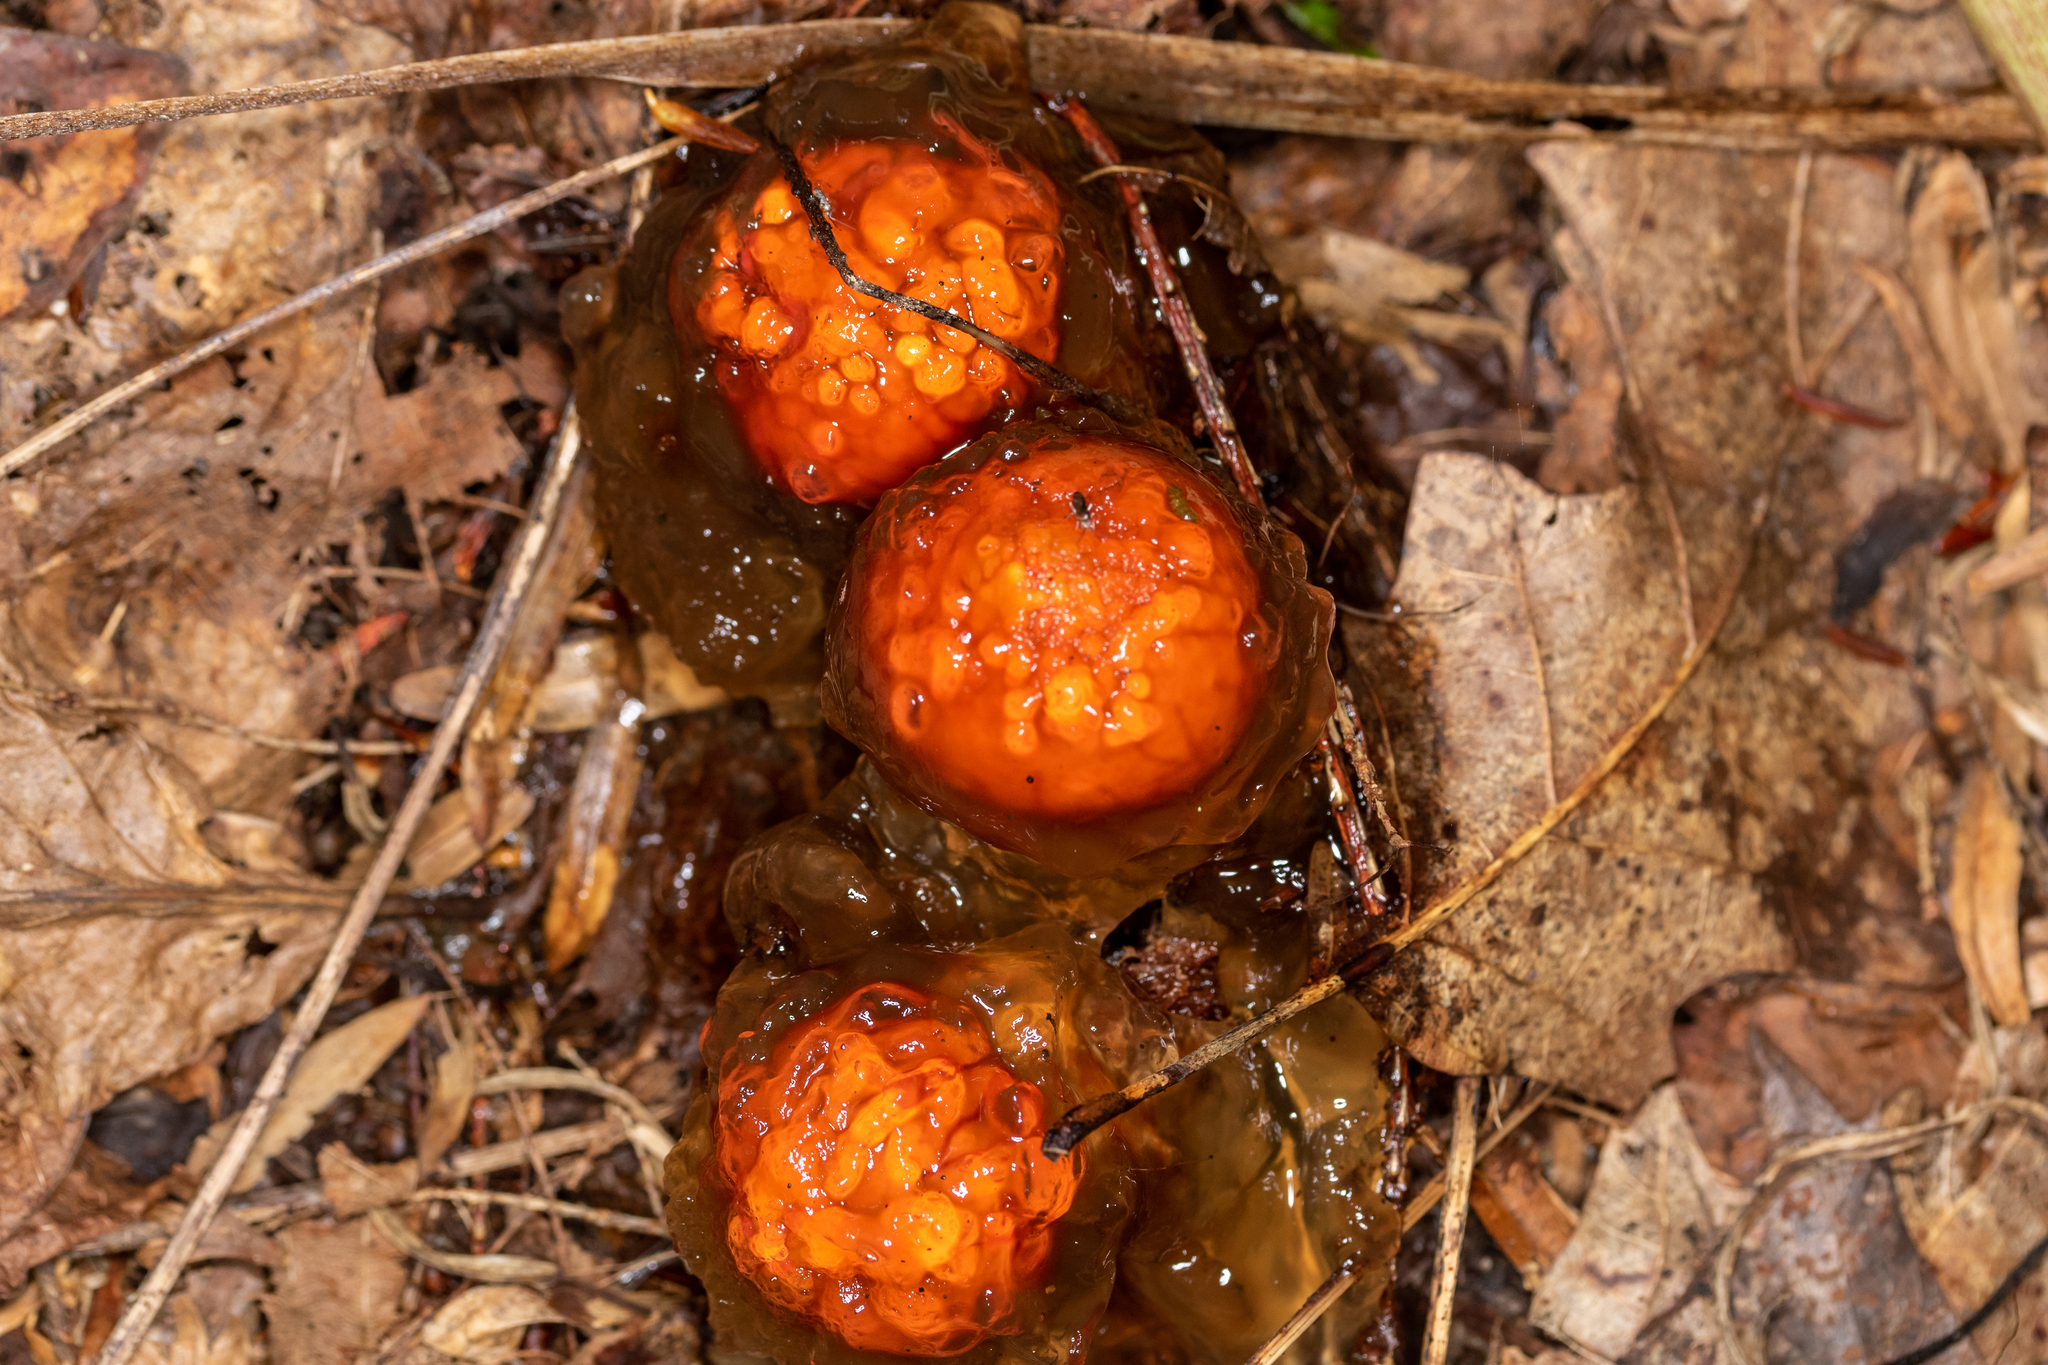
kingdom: Fungi
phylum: Basidiomycota
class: Agaricomycetes
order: Boletales
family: Calostomataceae
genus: Calostoma
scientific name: Calostoma cinnabarinum
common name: Stalked puffball-in-aspic
